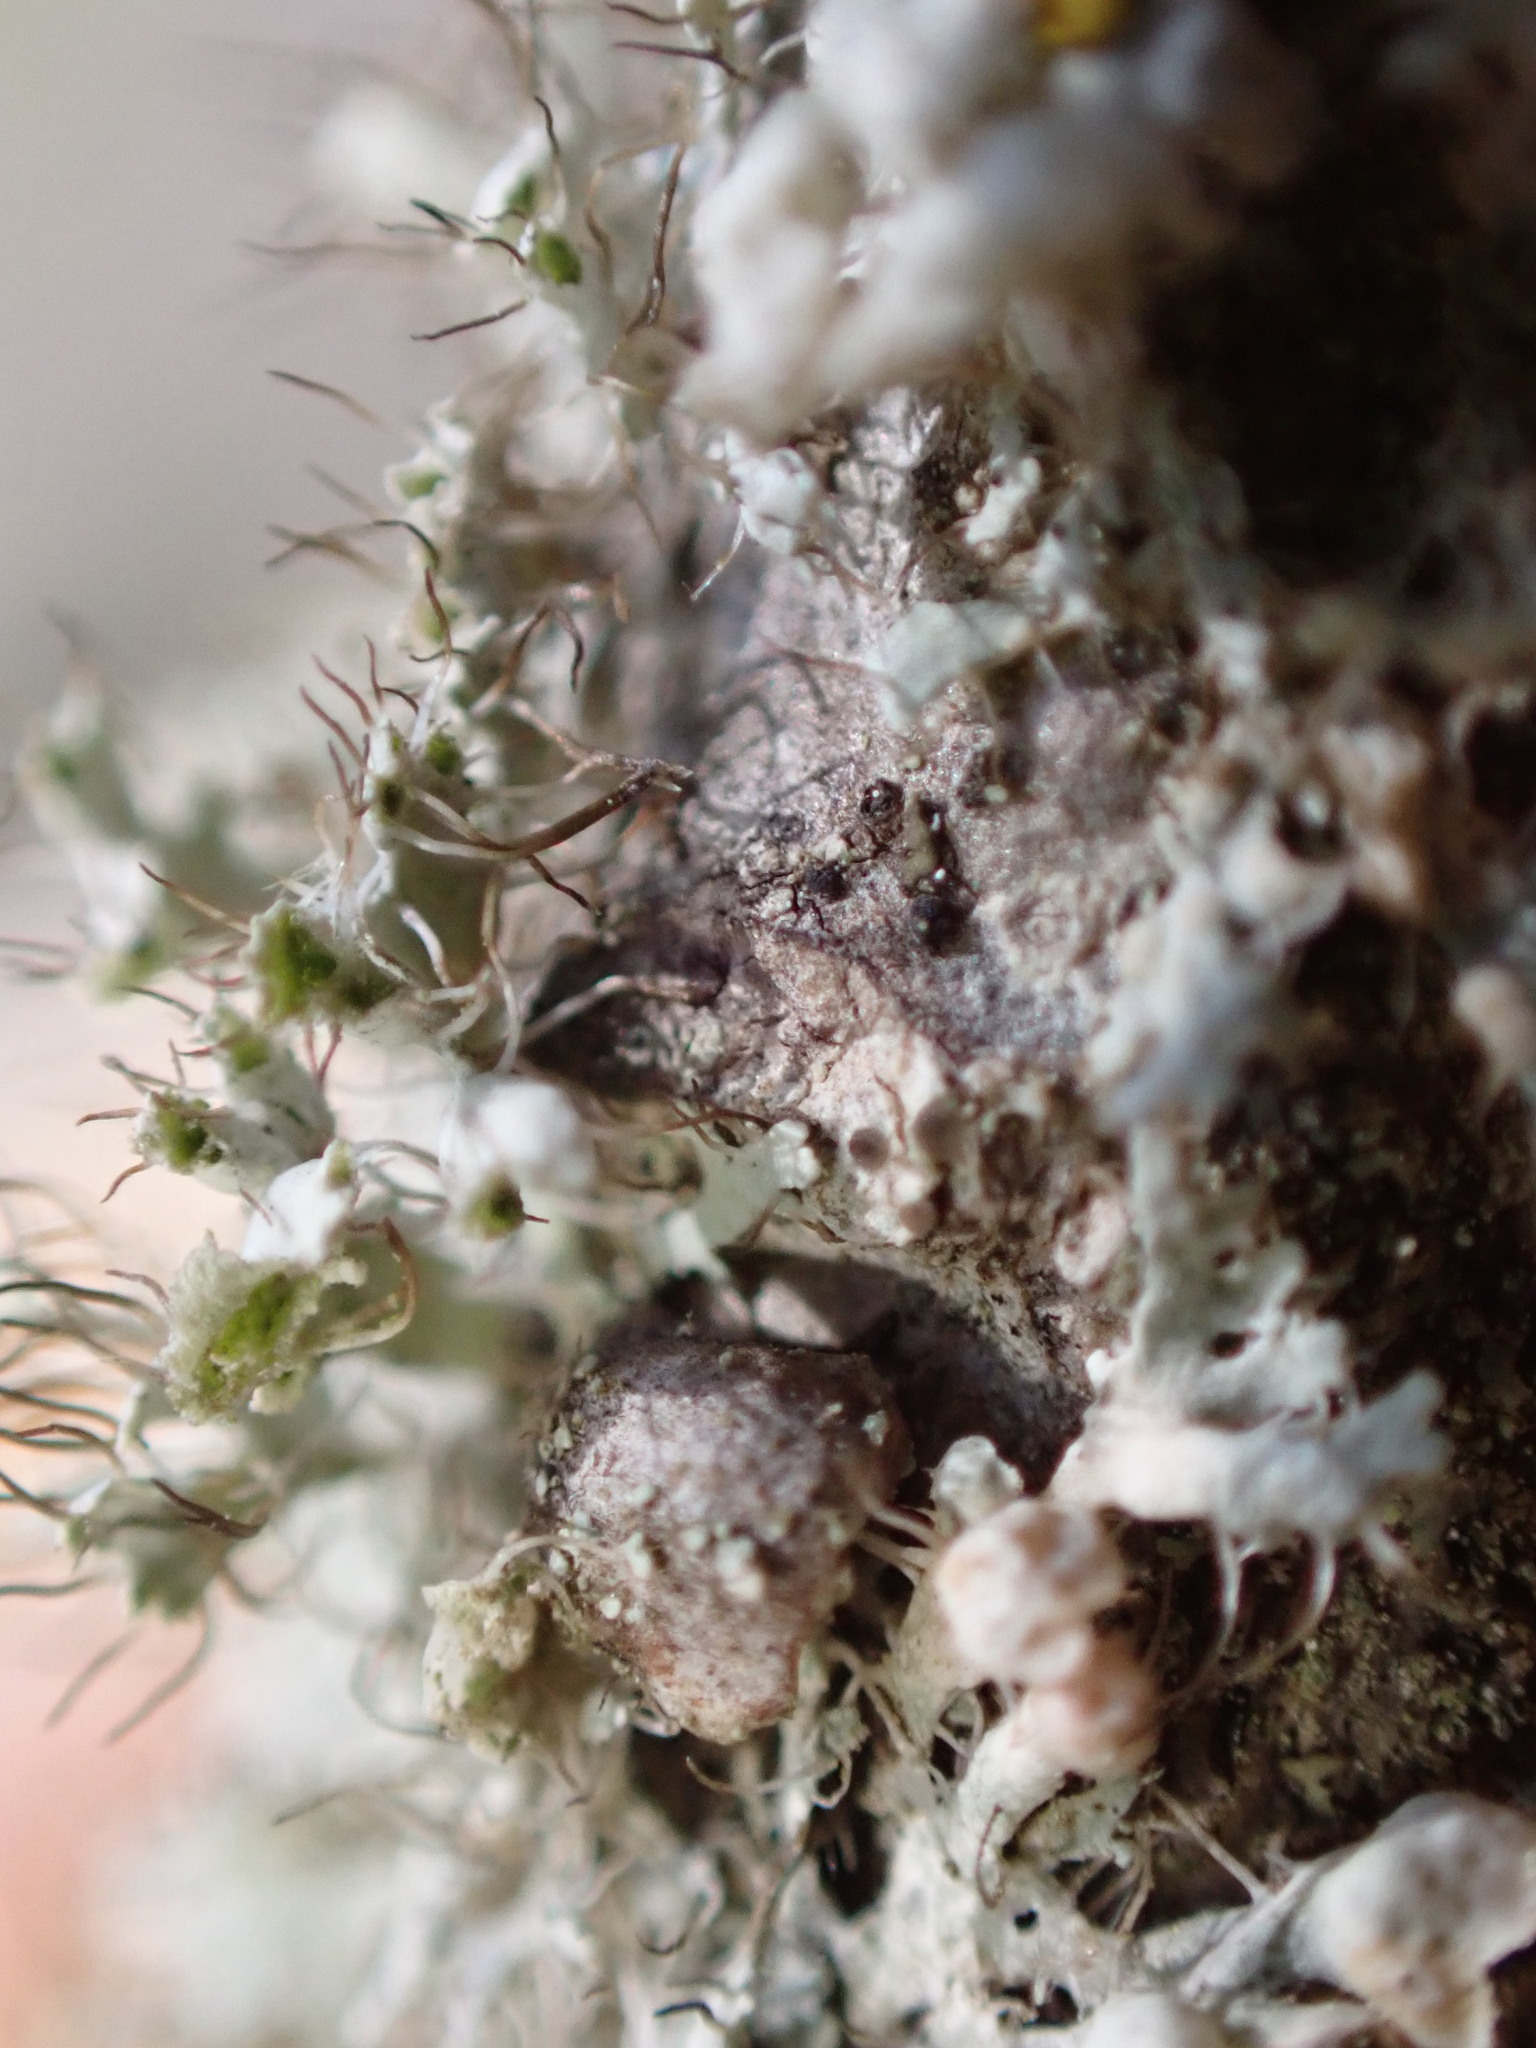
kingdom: Fungi
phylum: Ascomycota
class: Lecanoromycetes
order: Caliciales
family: Physciaceae
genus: Physcia
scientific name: Physcia adscendens
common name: Hooded rosette lichen
